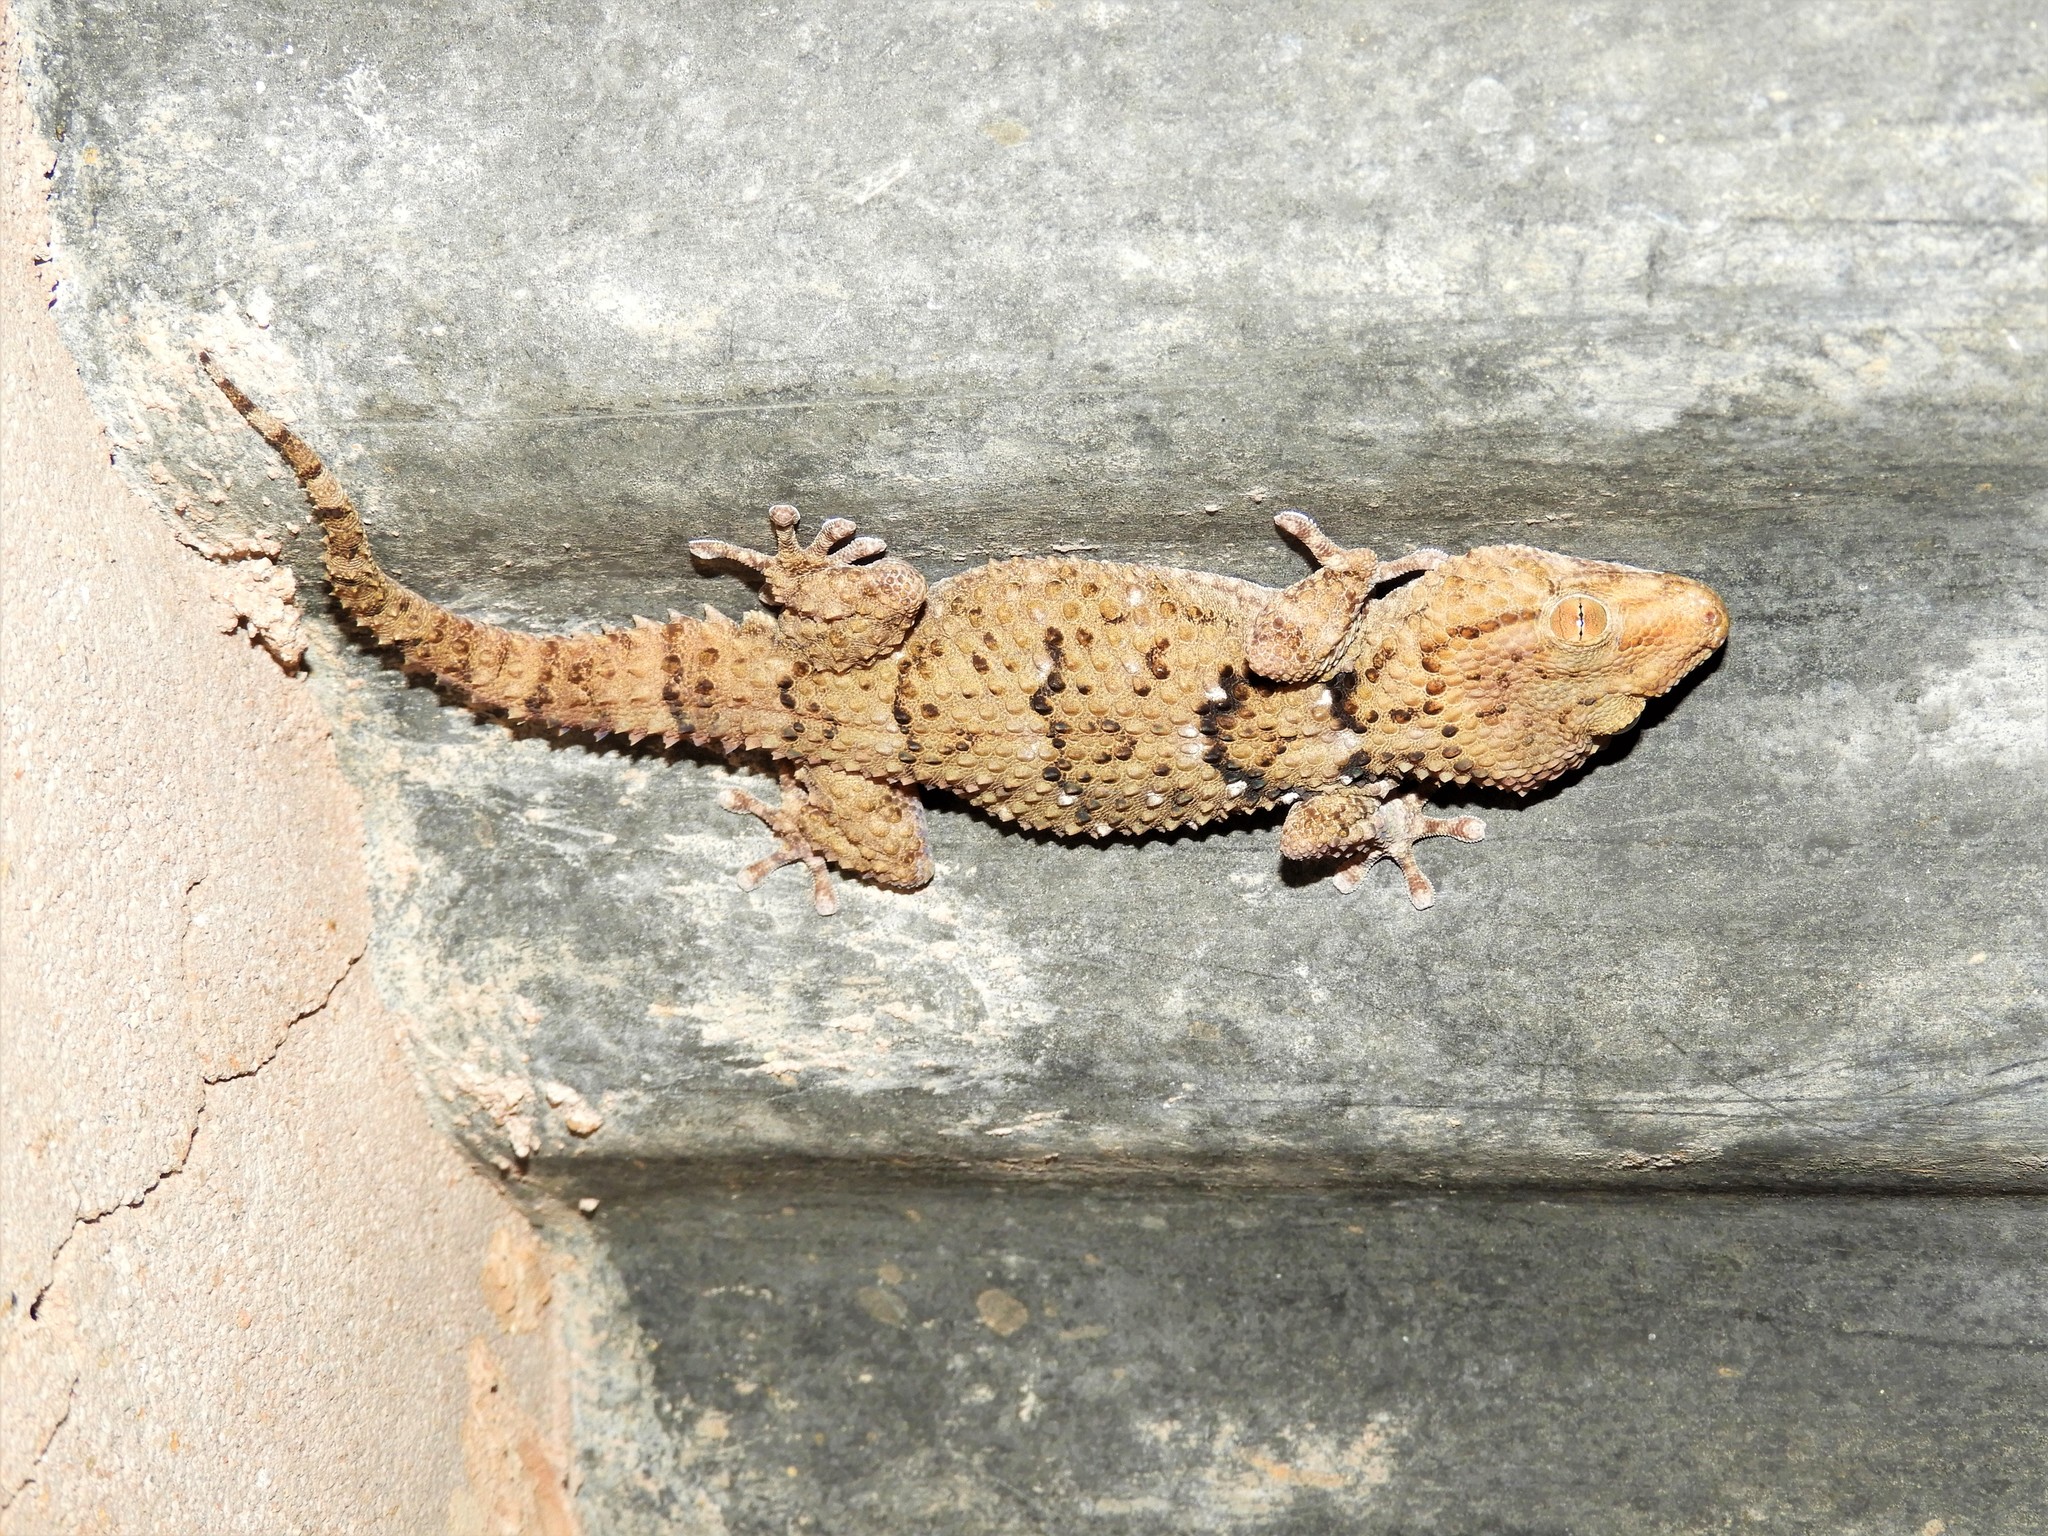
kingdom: Animalia
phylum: Chordata
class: Squamata
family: Gekkonidae
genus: Chondrodactylus
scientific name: Chondrodactylus bibronii
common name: Bibron's gecko
